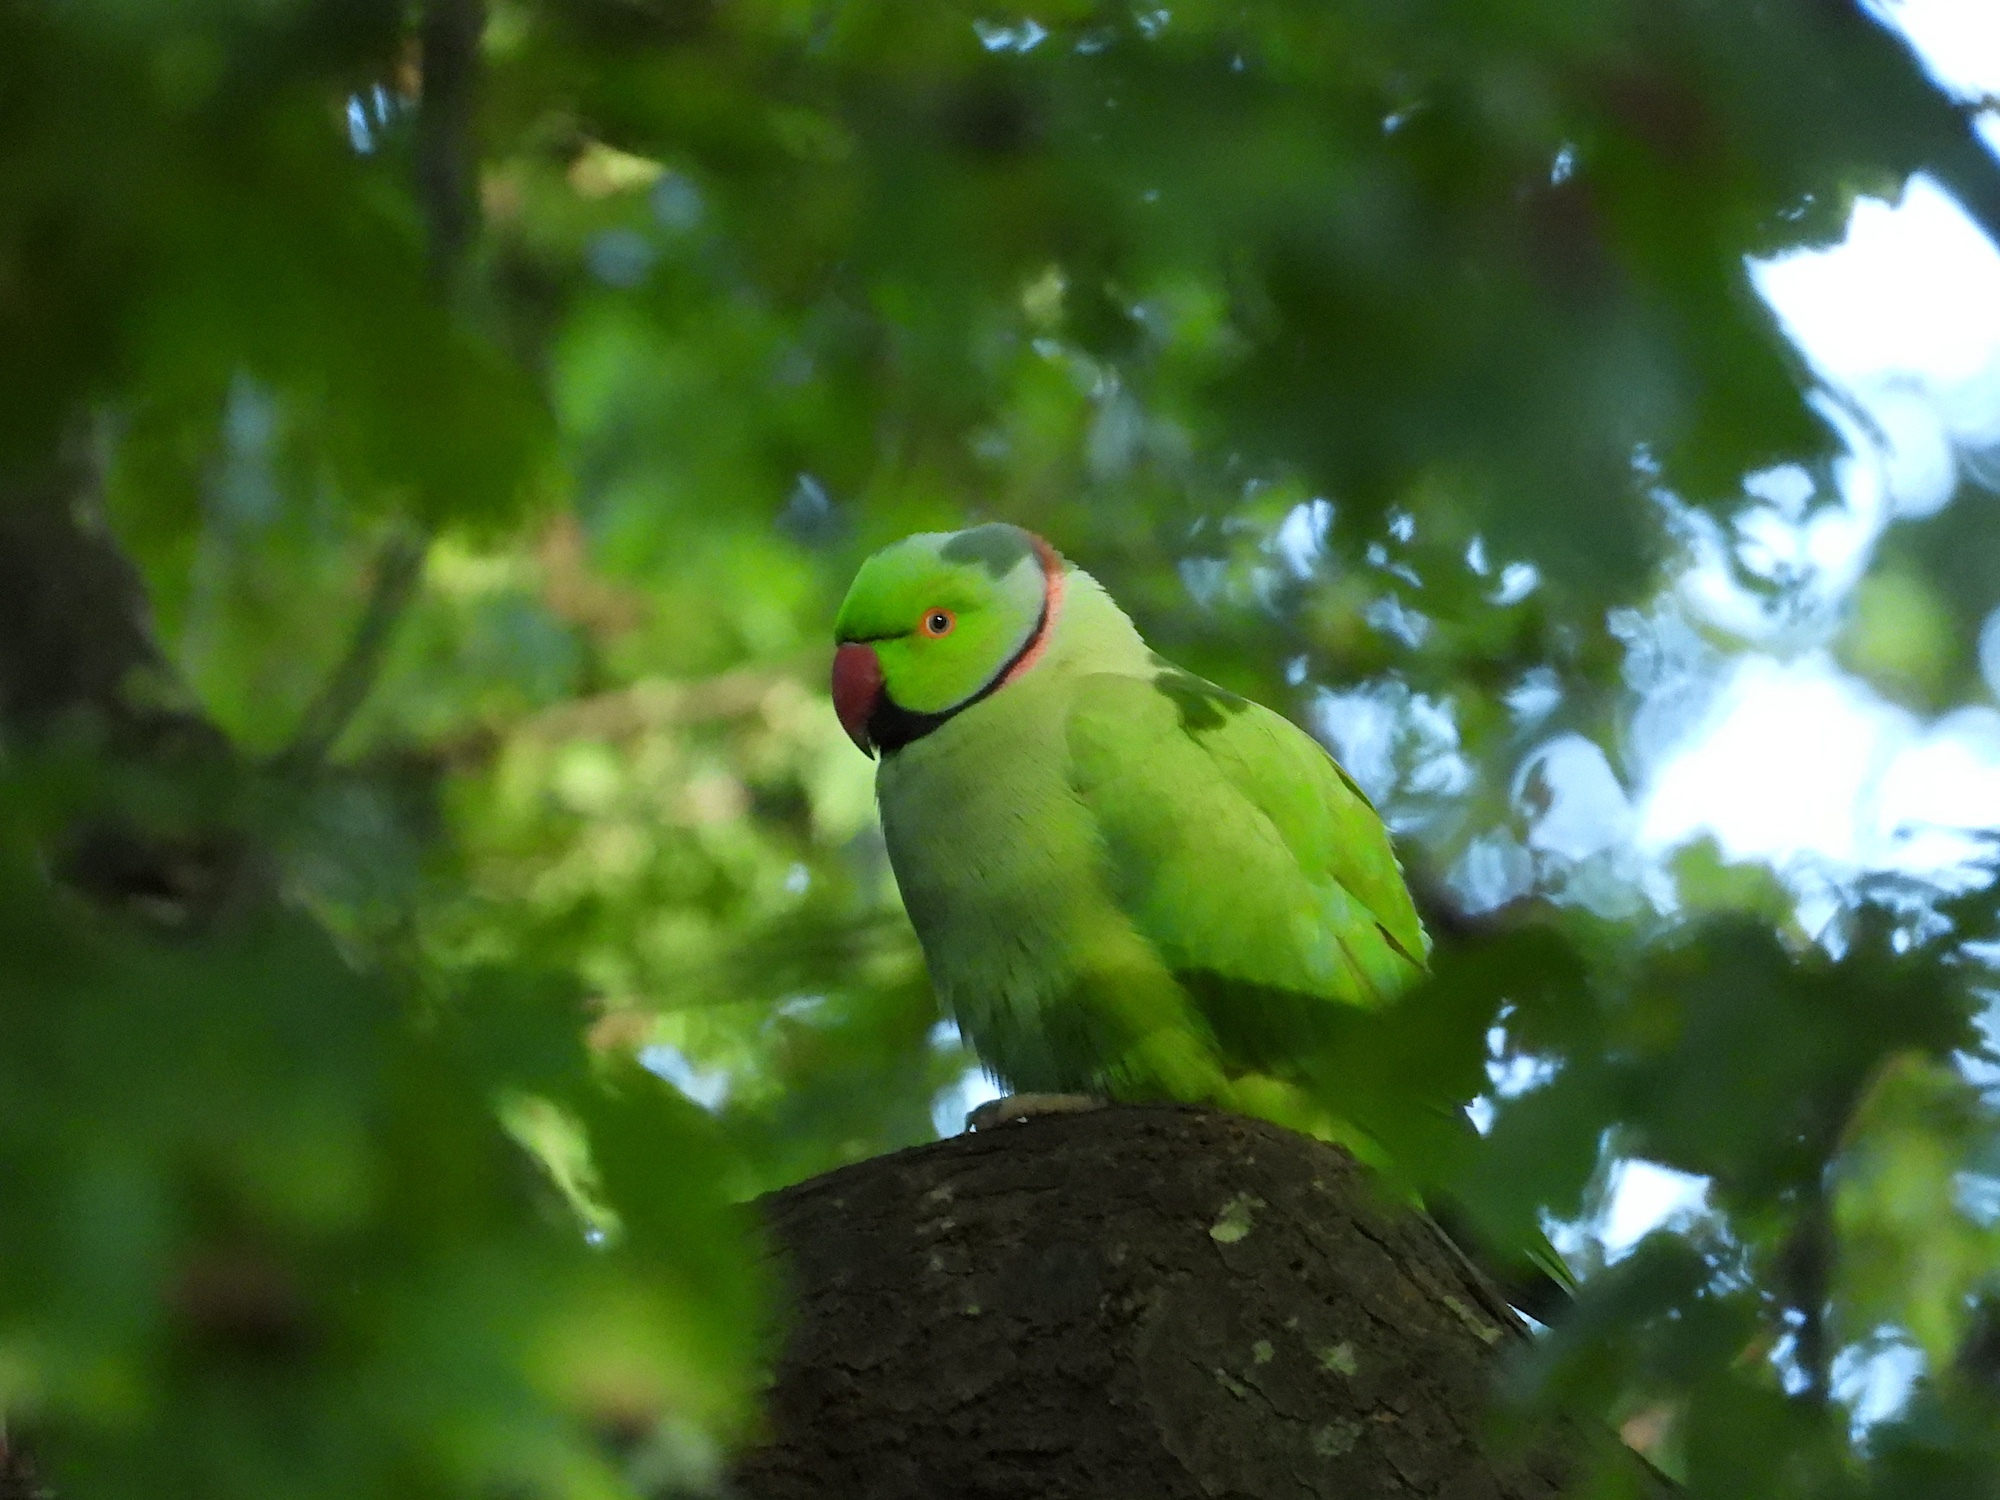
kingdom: Animalia
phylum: Chordata
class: Aves
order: Psittaciformes
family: Psittacidae
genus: Psittacula
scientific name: Psittacula krameri
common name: Rose-ringed parakeet
